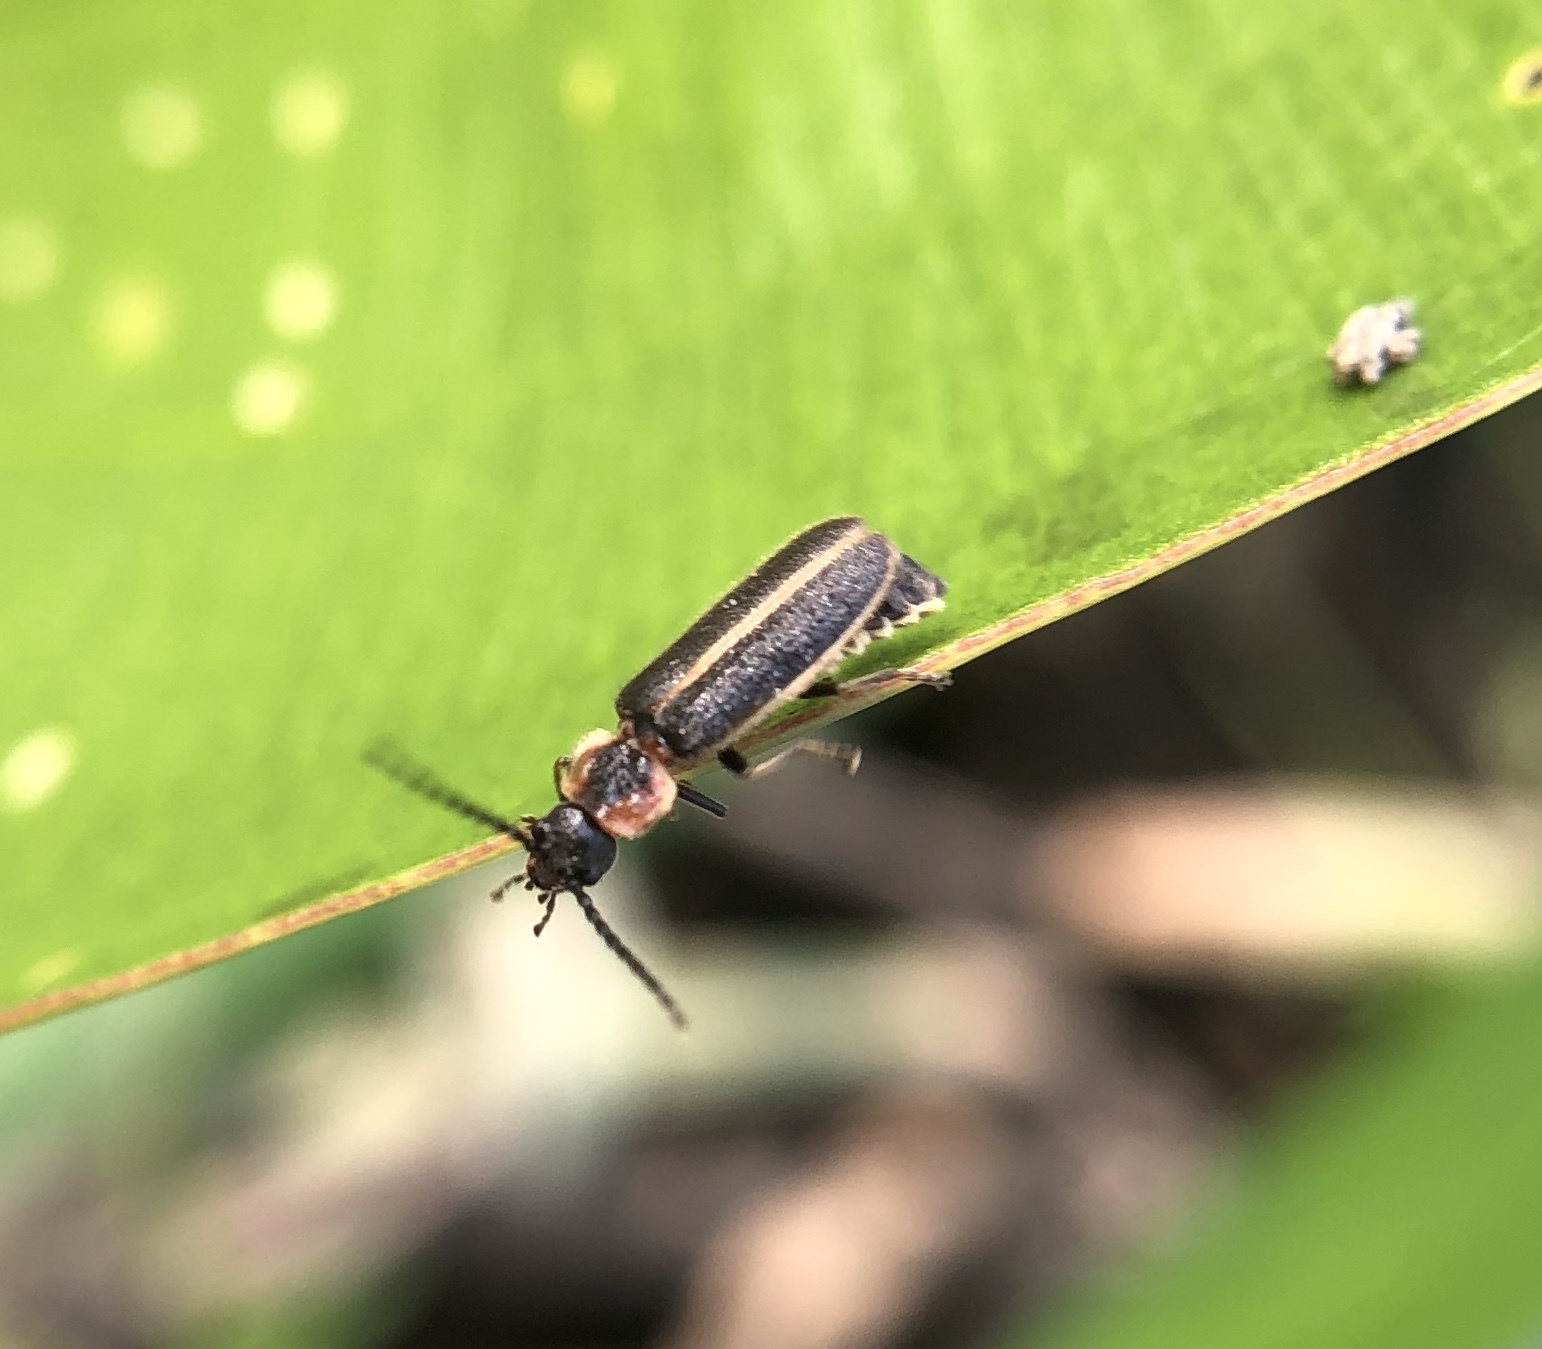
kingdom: Animalia
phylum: Arthropoda
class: Insecta
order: Coleoptera
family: Cantharidae
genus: Polemius
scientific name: Polemius limbatus
